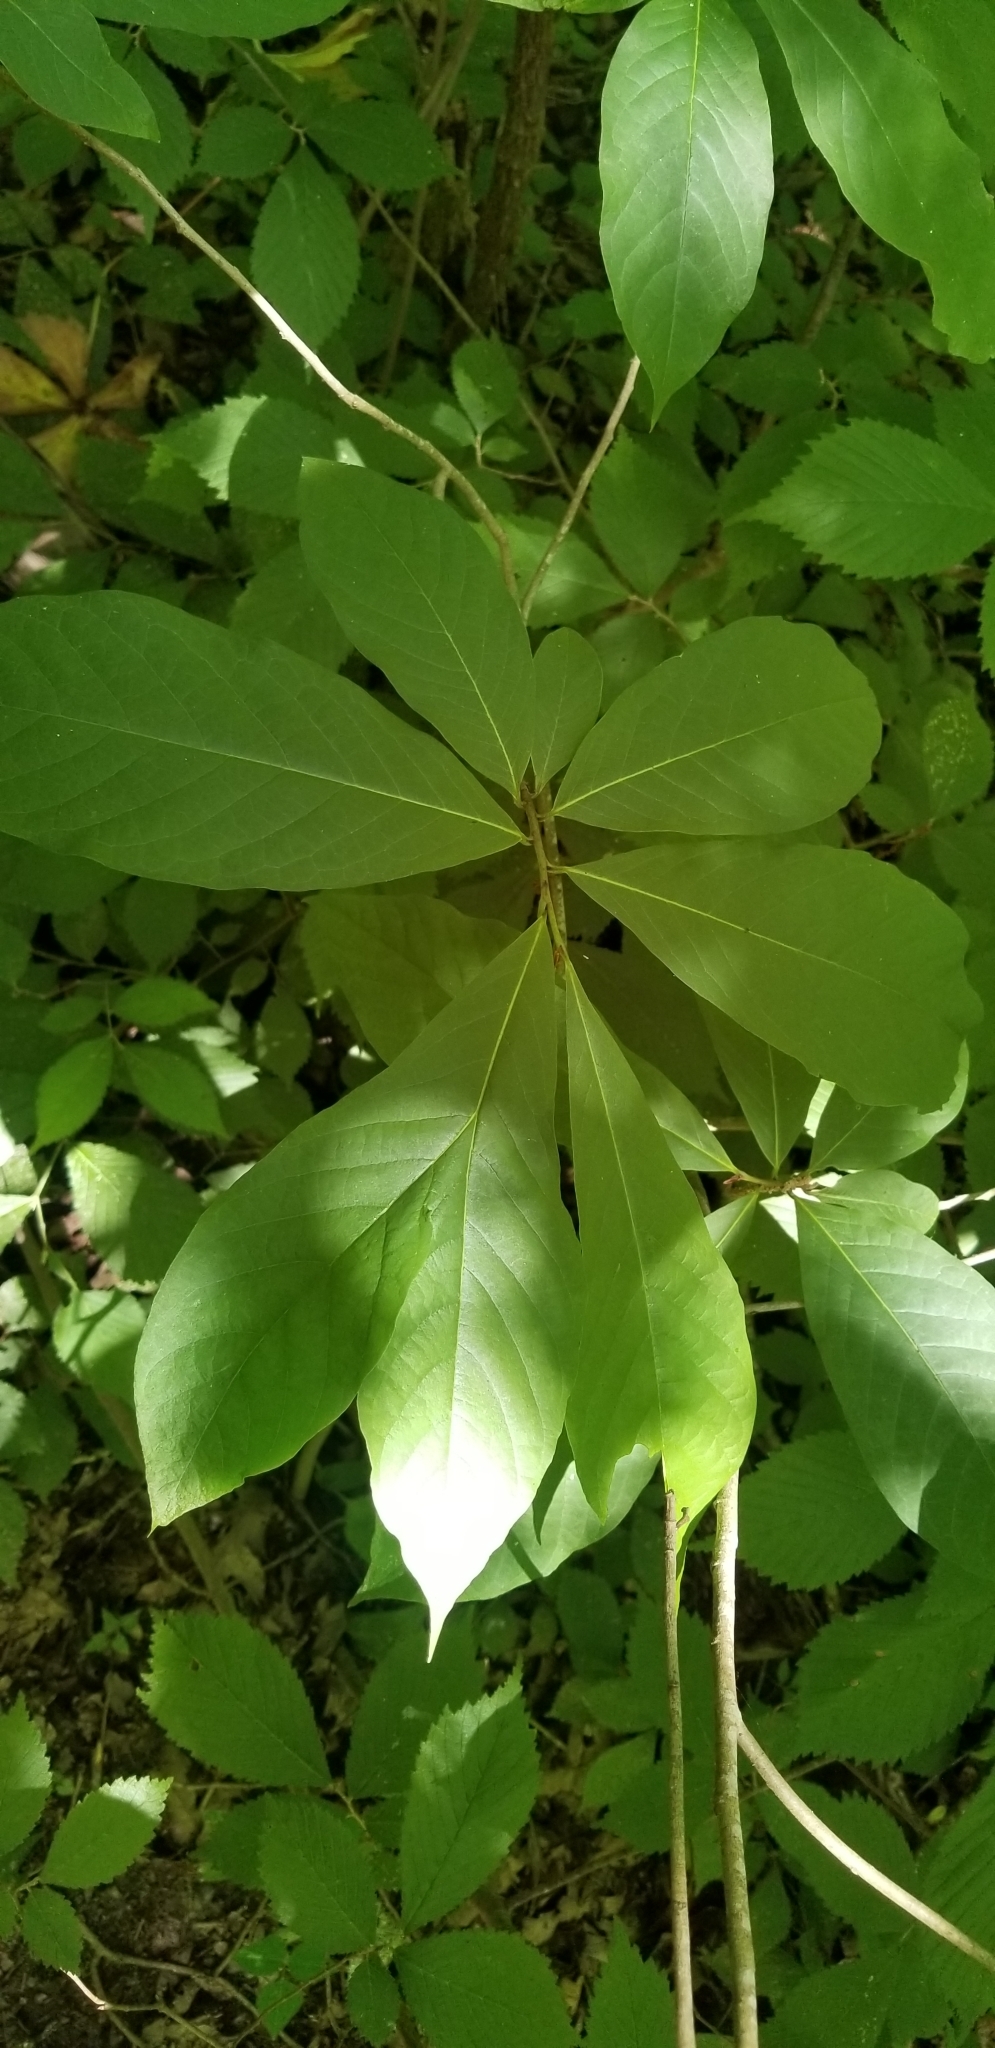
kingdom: Plantae
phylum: Tracheophyta
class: Magnoliopsida
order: Magnoliales
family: Annonaceae
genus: Asimina
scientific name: Asimina triloba
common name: Dog-banana
